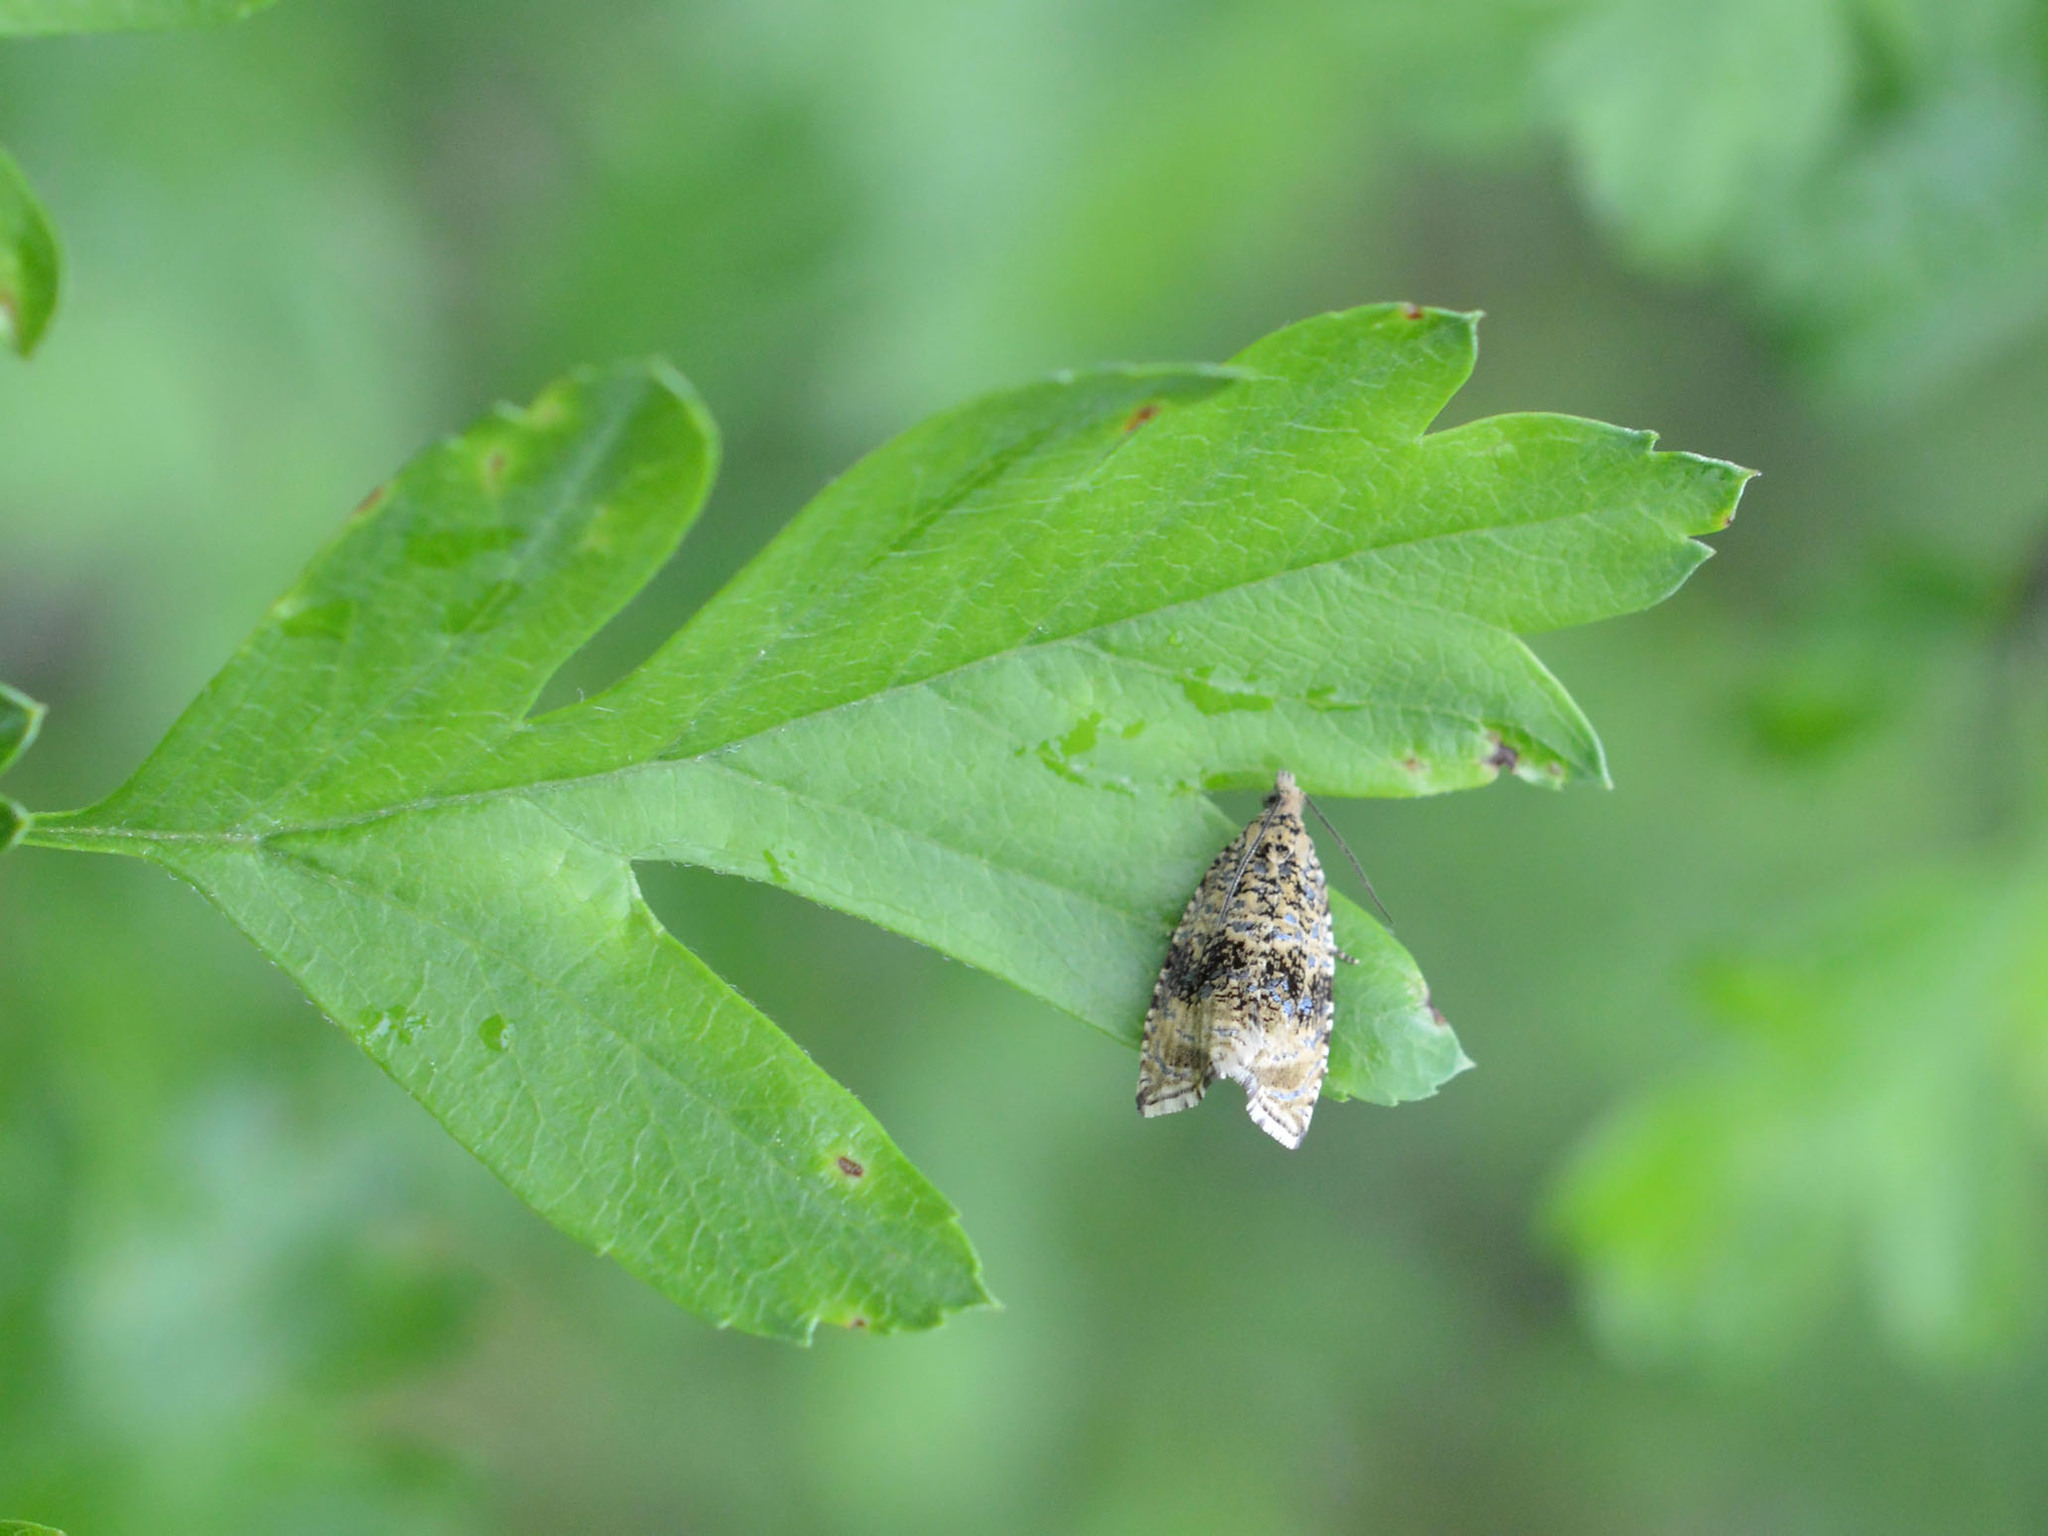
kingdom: Animalia
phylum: Arthropoda
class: Insecta
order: Lepidoptera
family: Tortricidae
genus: Syricoris
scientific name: Syricoris lacunana
